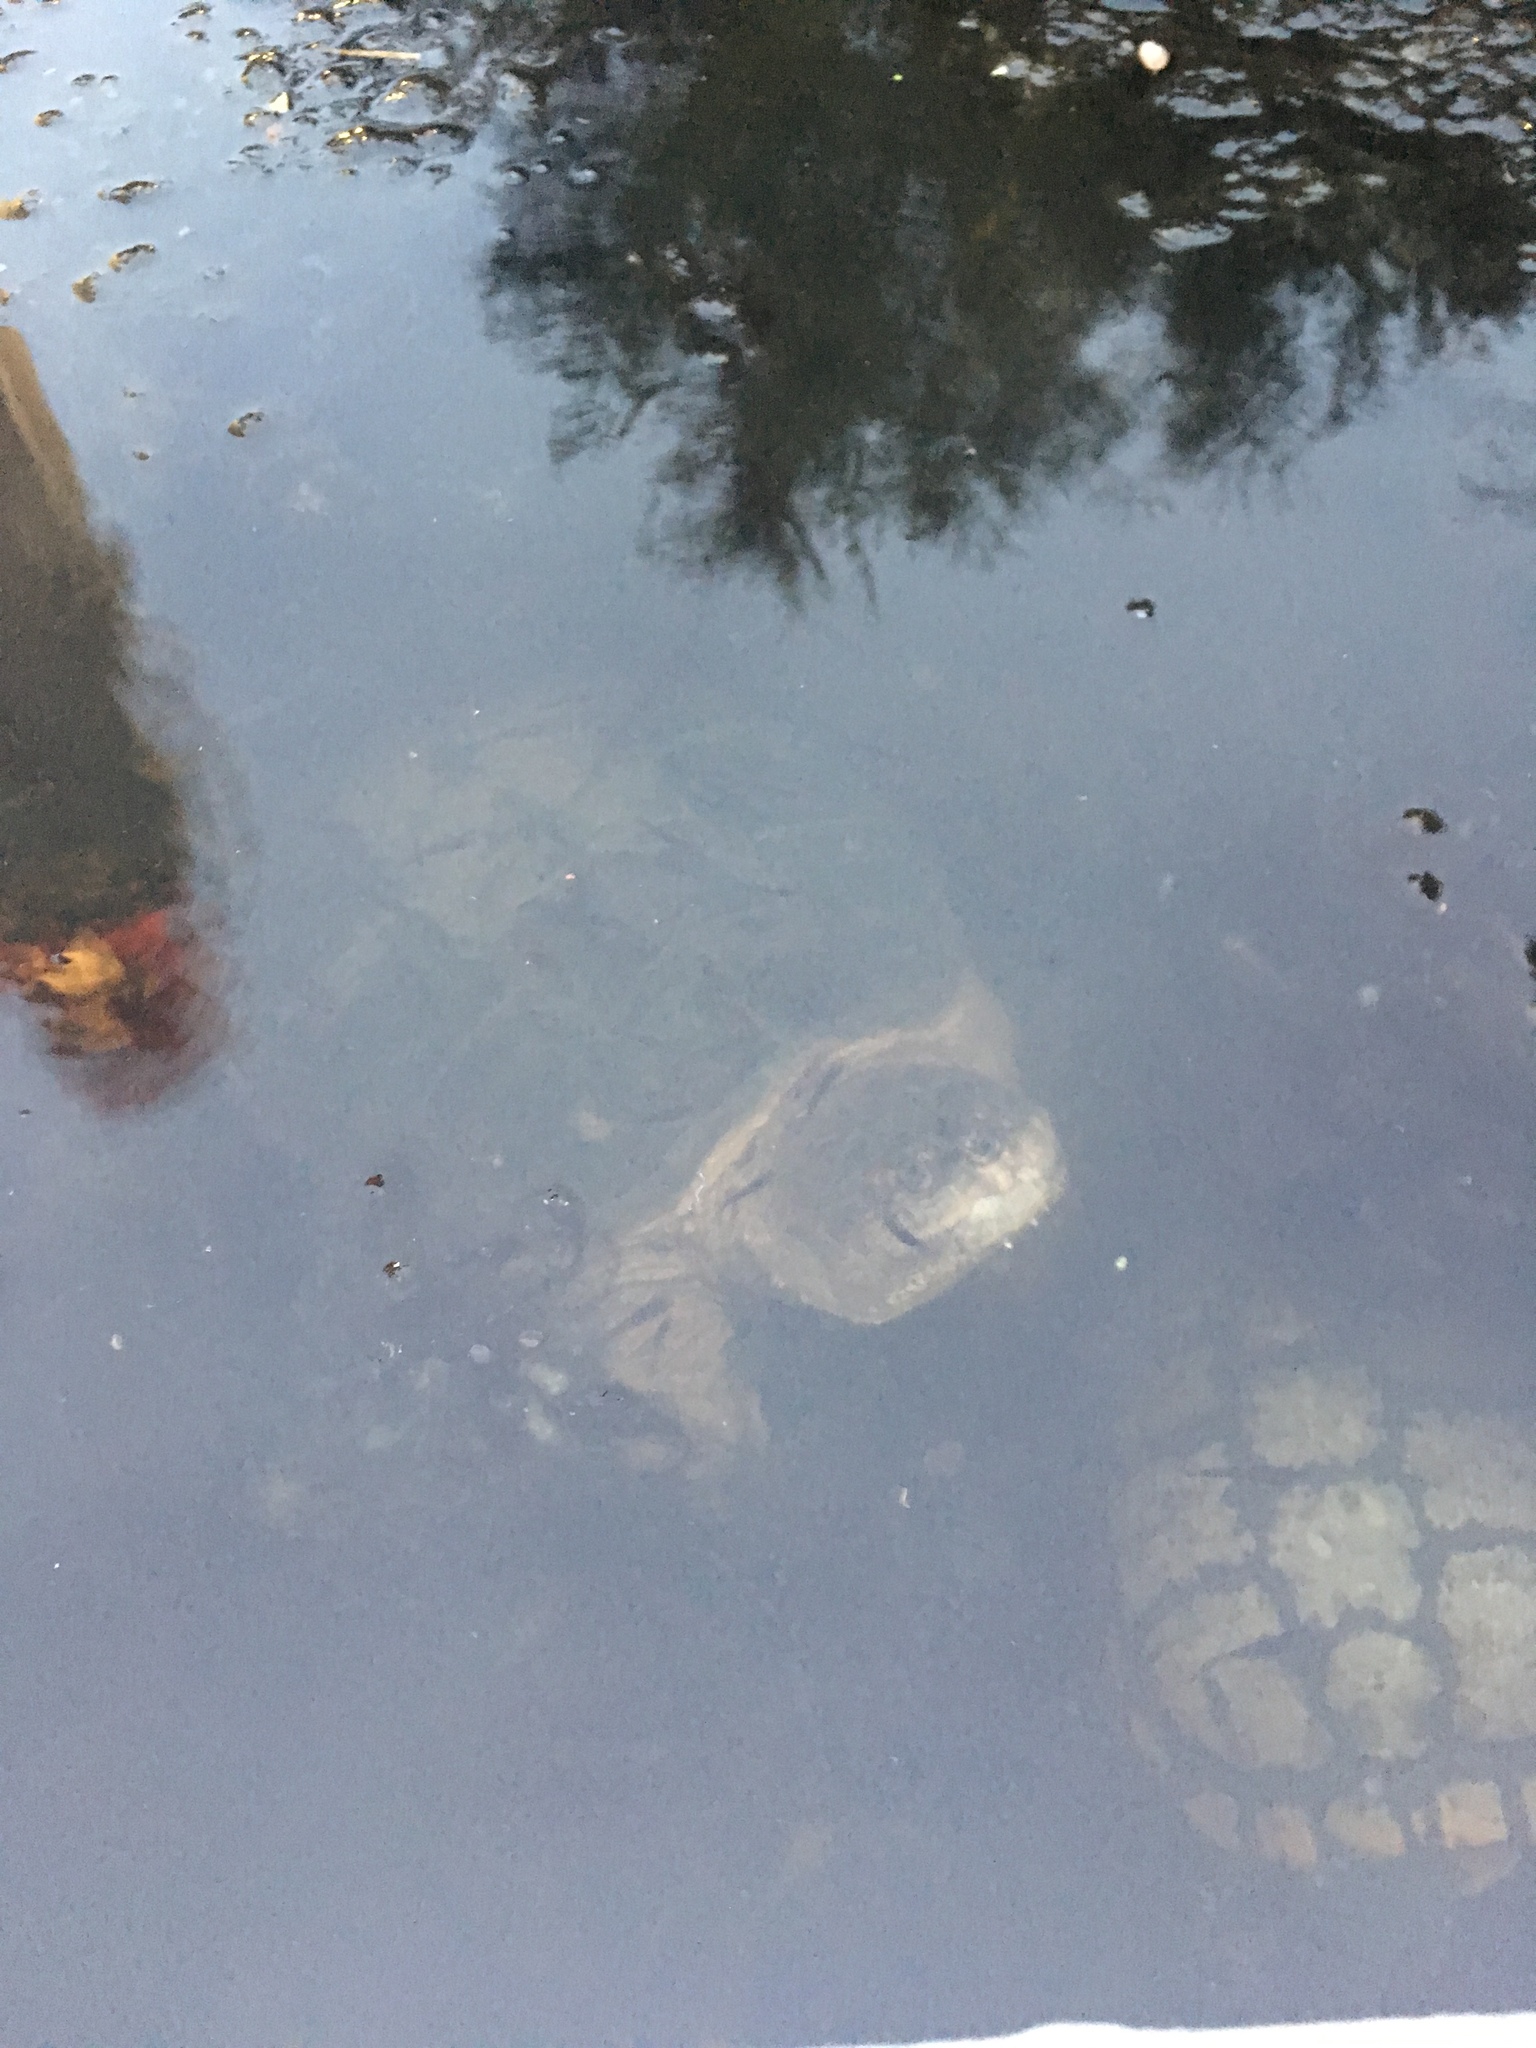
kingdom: Animalia
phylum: Chordata
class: Testudines
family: Chelydridae
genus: Chelydra
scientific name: Chelydra serpentina
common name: Common snapping turtle
